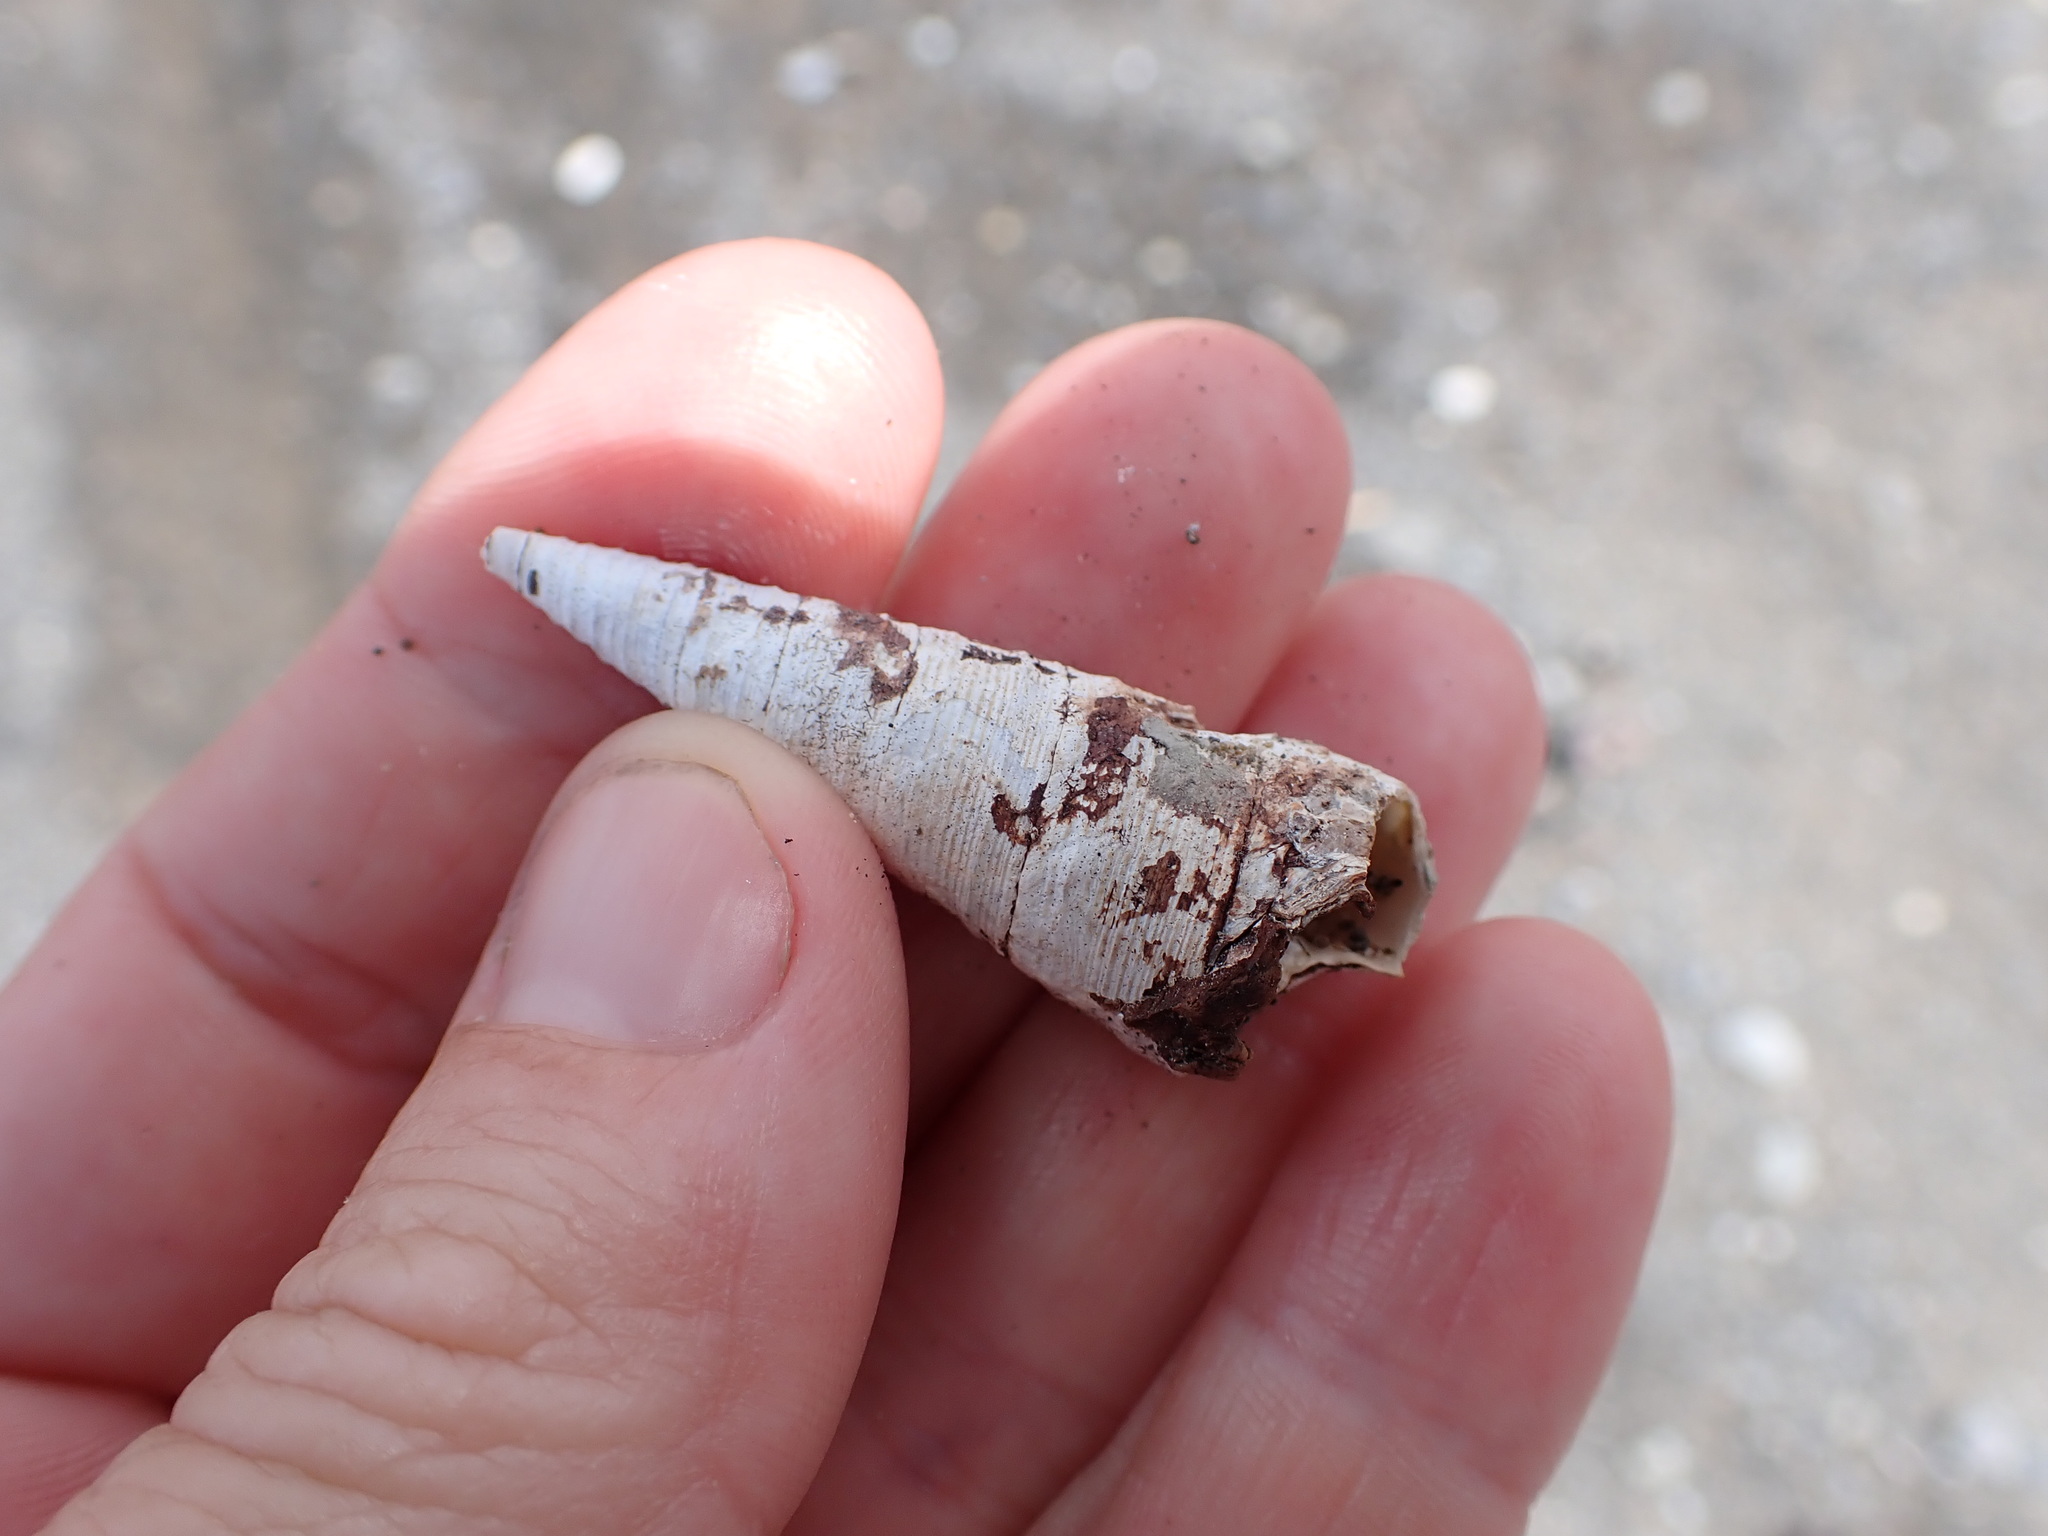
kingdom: Animalia
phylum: Mollusca
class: Gastropoda
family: Turritellidae
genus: Maoricolpus
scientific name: Maoricolpus roseus
